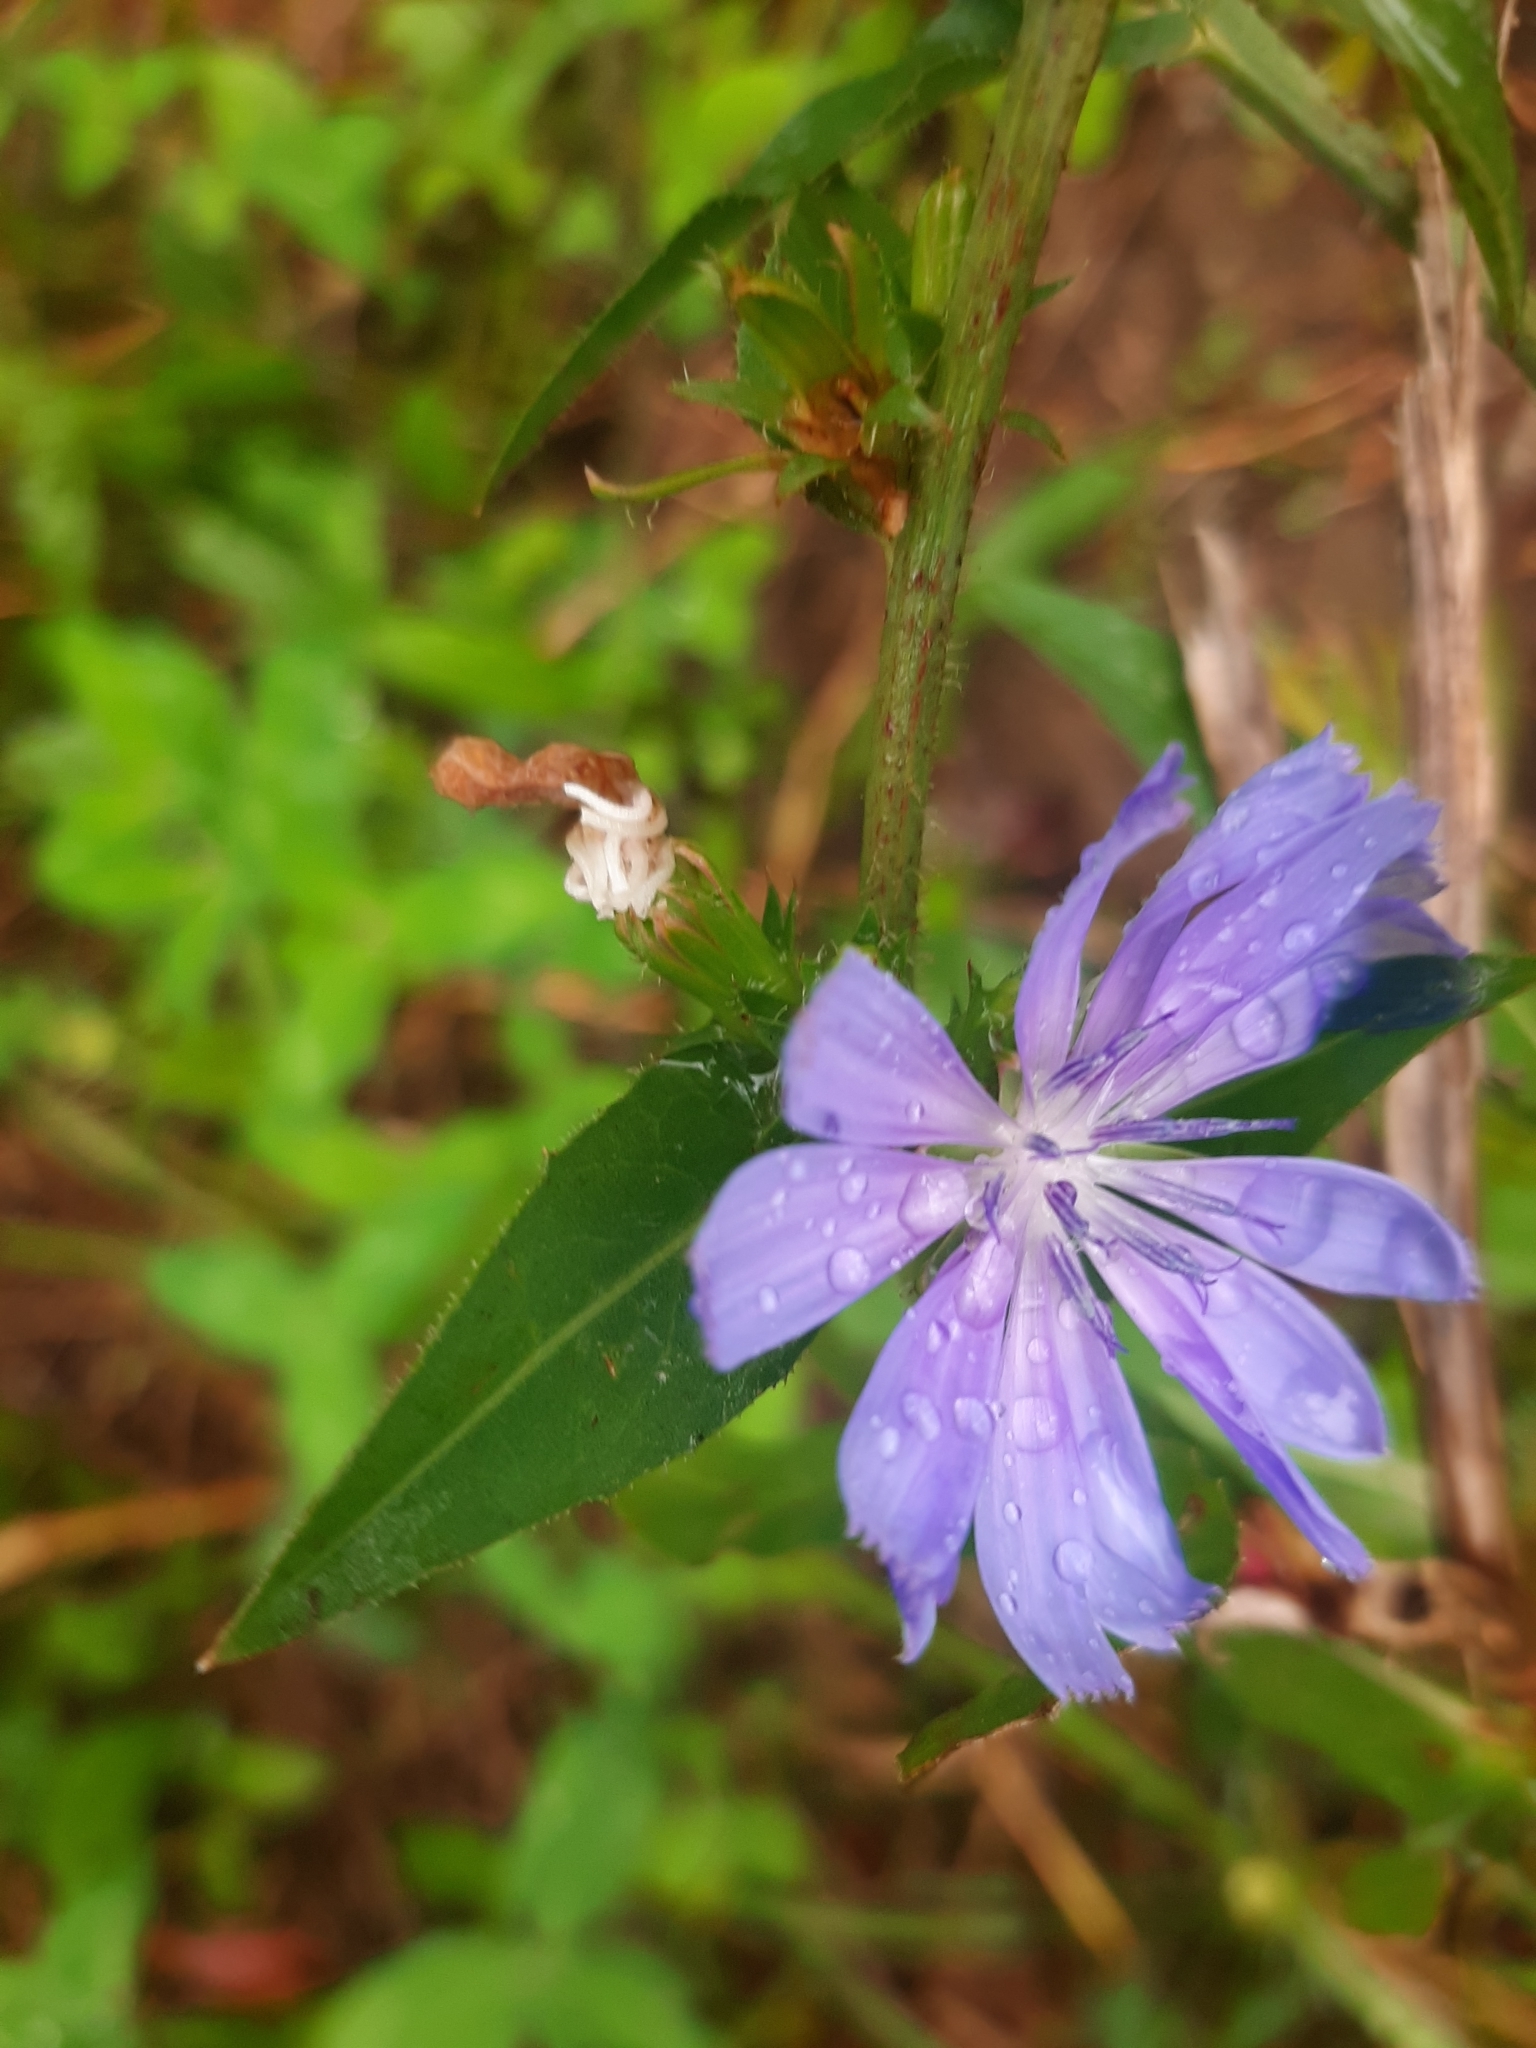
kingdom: Plantae
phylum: Tracheophyta
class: Magnoliopsida
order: Asterales
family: Asteraceae
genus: Cichorium
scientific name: Cichorium intybus
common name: Chicory
